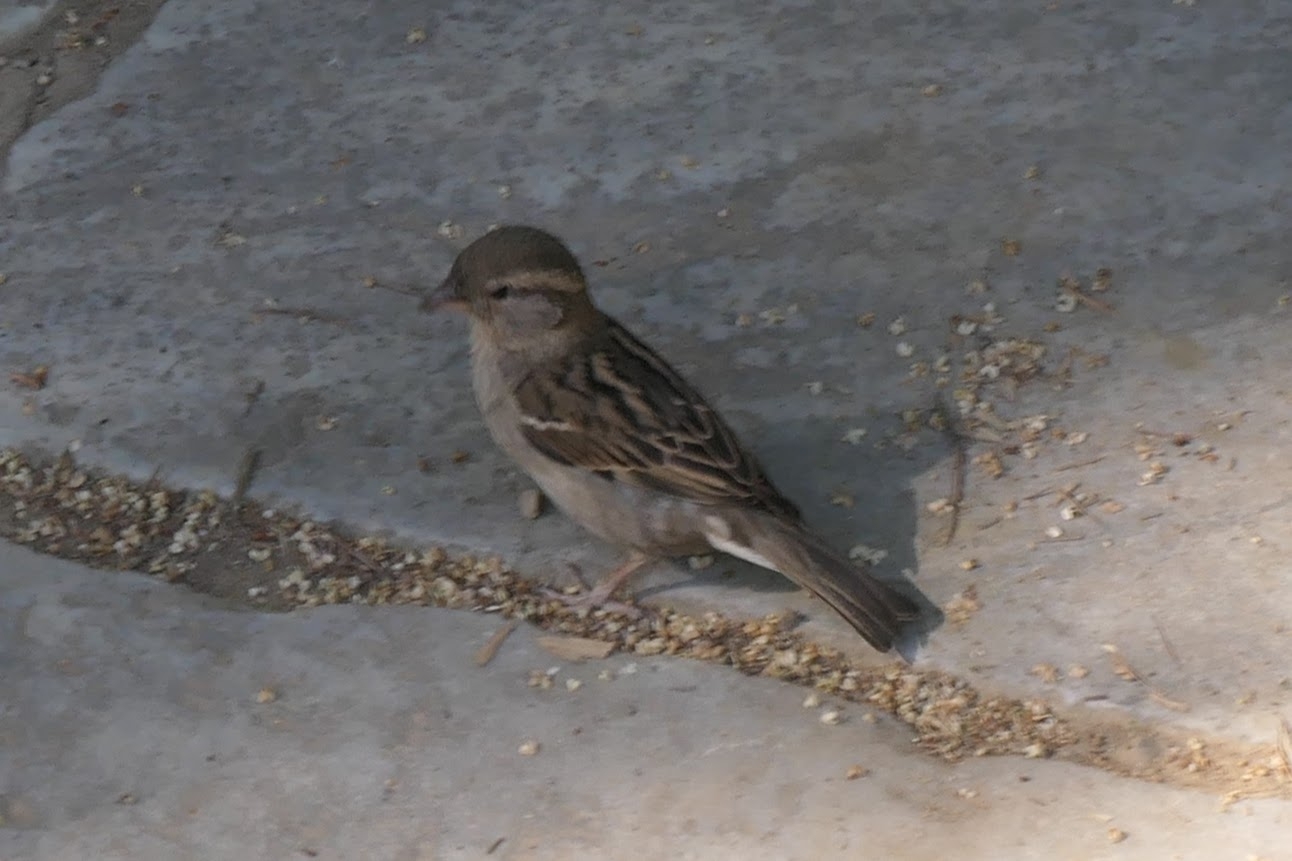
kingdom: Animalia
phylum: Chordata
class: Aves
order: Passeriformes
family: Passeridae
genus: Passer
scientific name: Passer domesticus
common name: House sparrow
